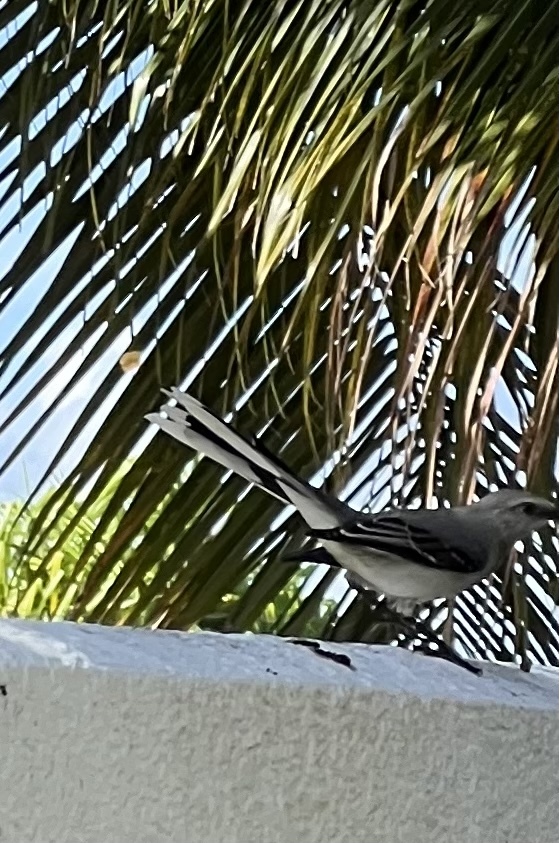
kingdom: Animalia
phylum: Chordata
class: Aves
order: Passeriformes
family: Mimidae
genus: Mimus
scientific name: Mimus gilvus
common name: Tropical mockingbird
